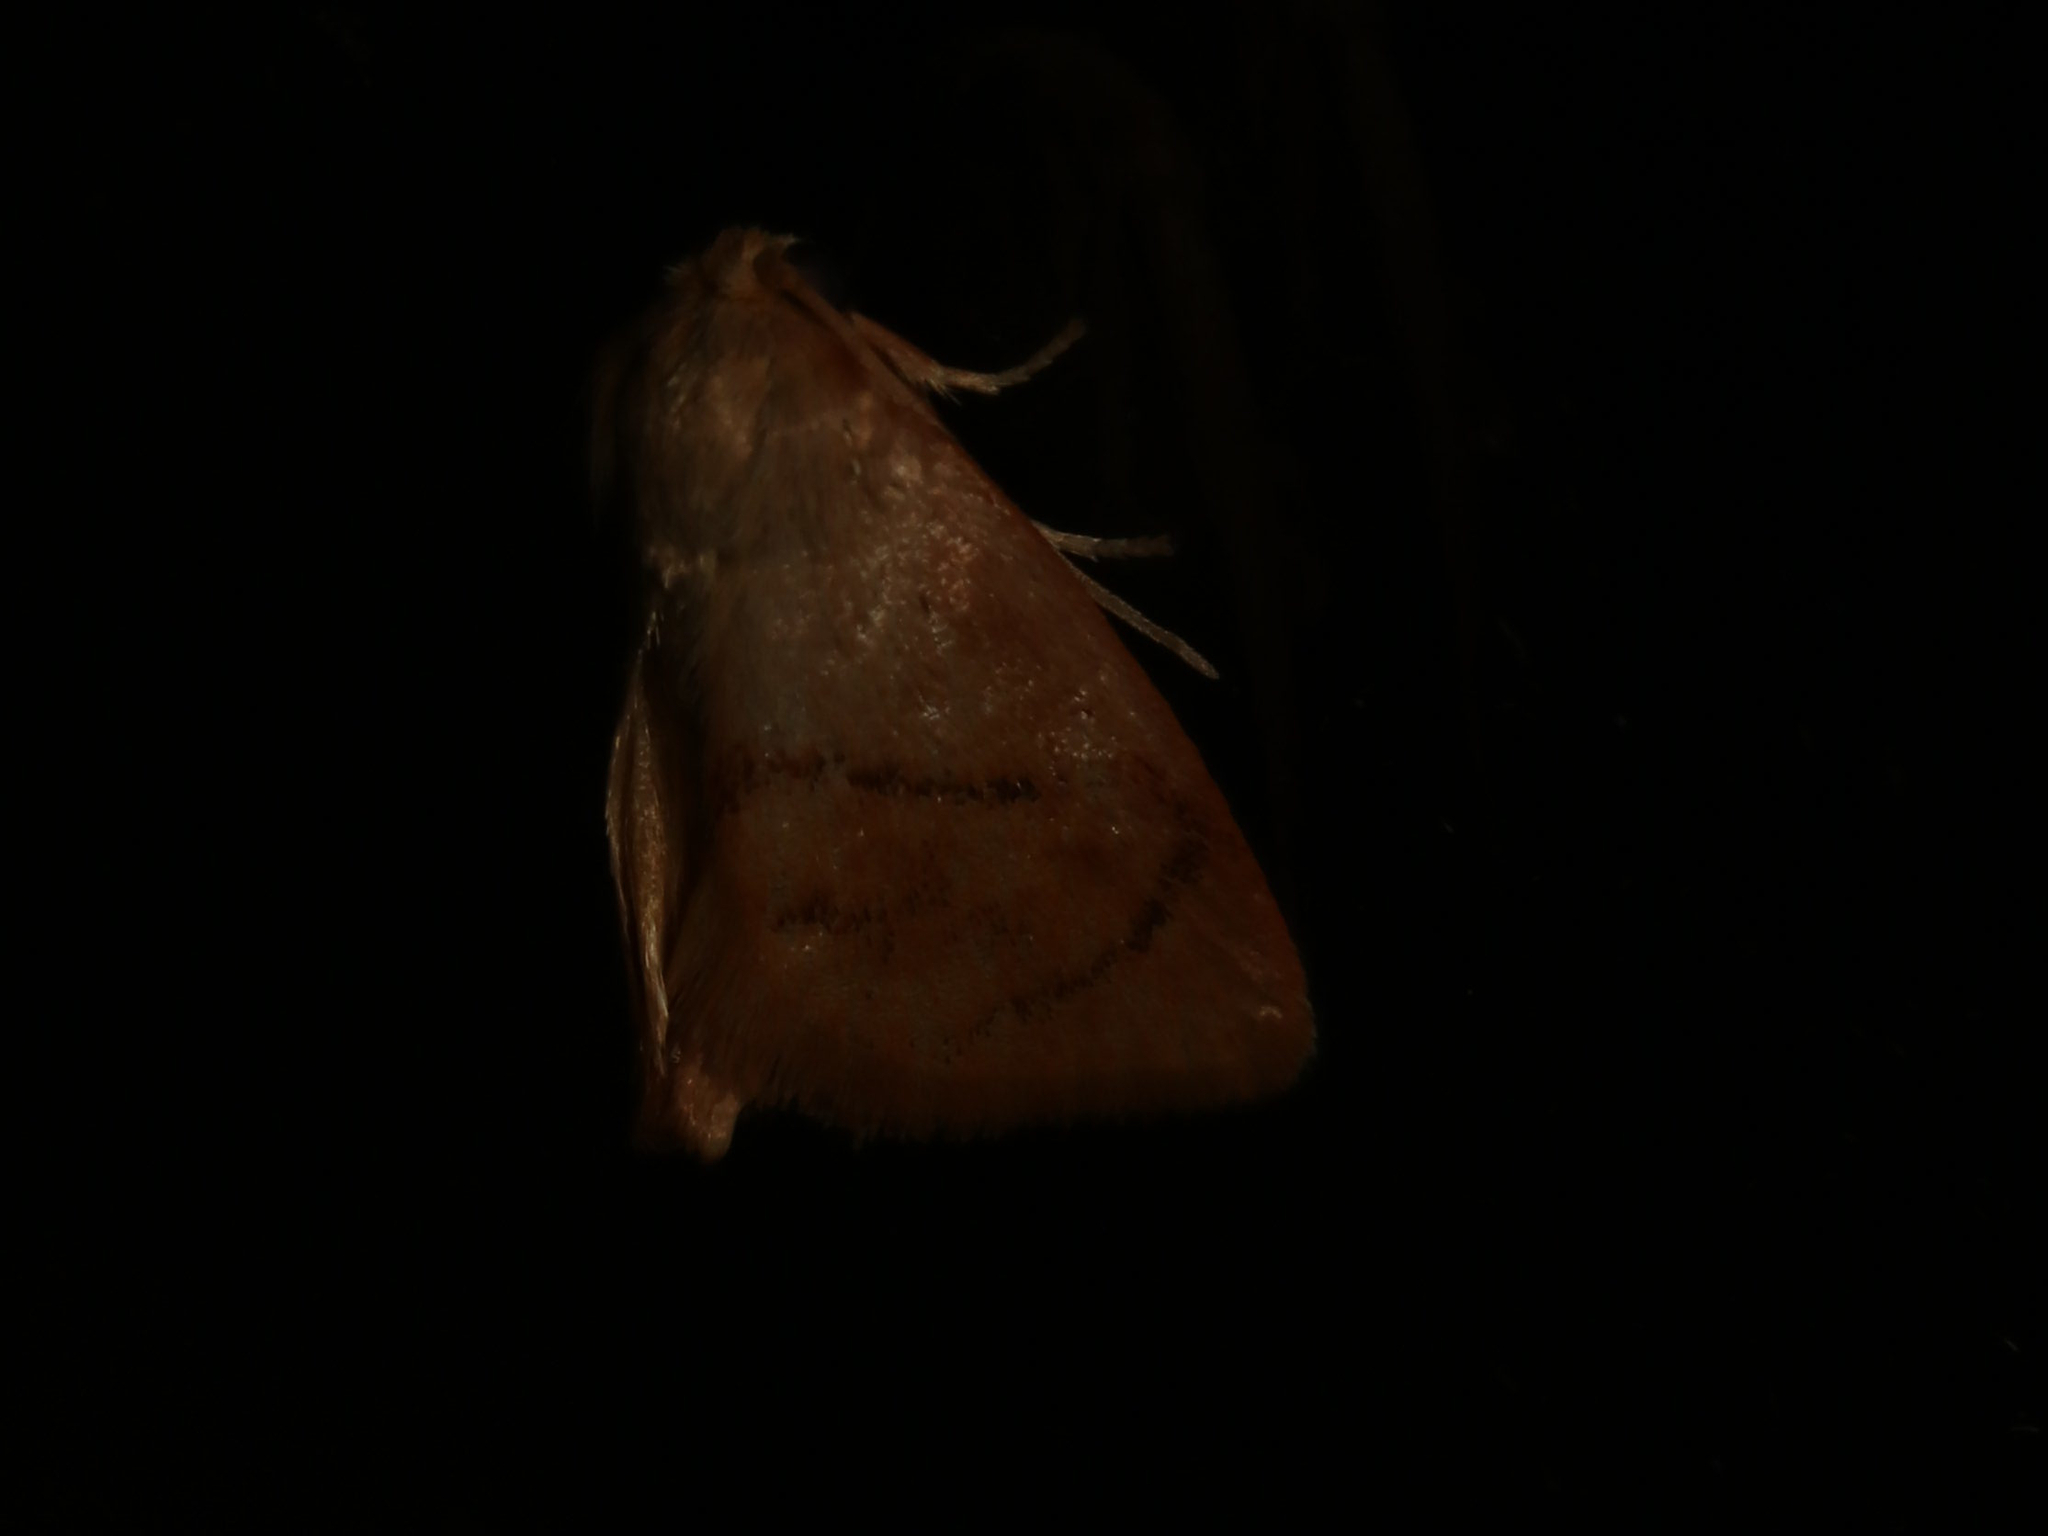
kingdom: Animalia
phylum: Arthropoda
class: Insecta
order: Lepidoptera
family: Limacodidae
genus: Tortricidia
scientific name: Tortricidia flexuosa
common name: Abbreviated button slug moth
